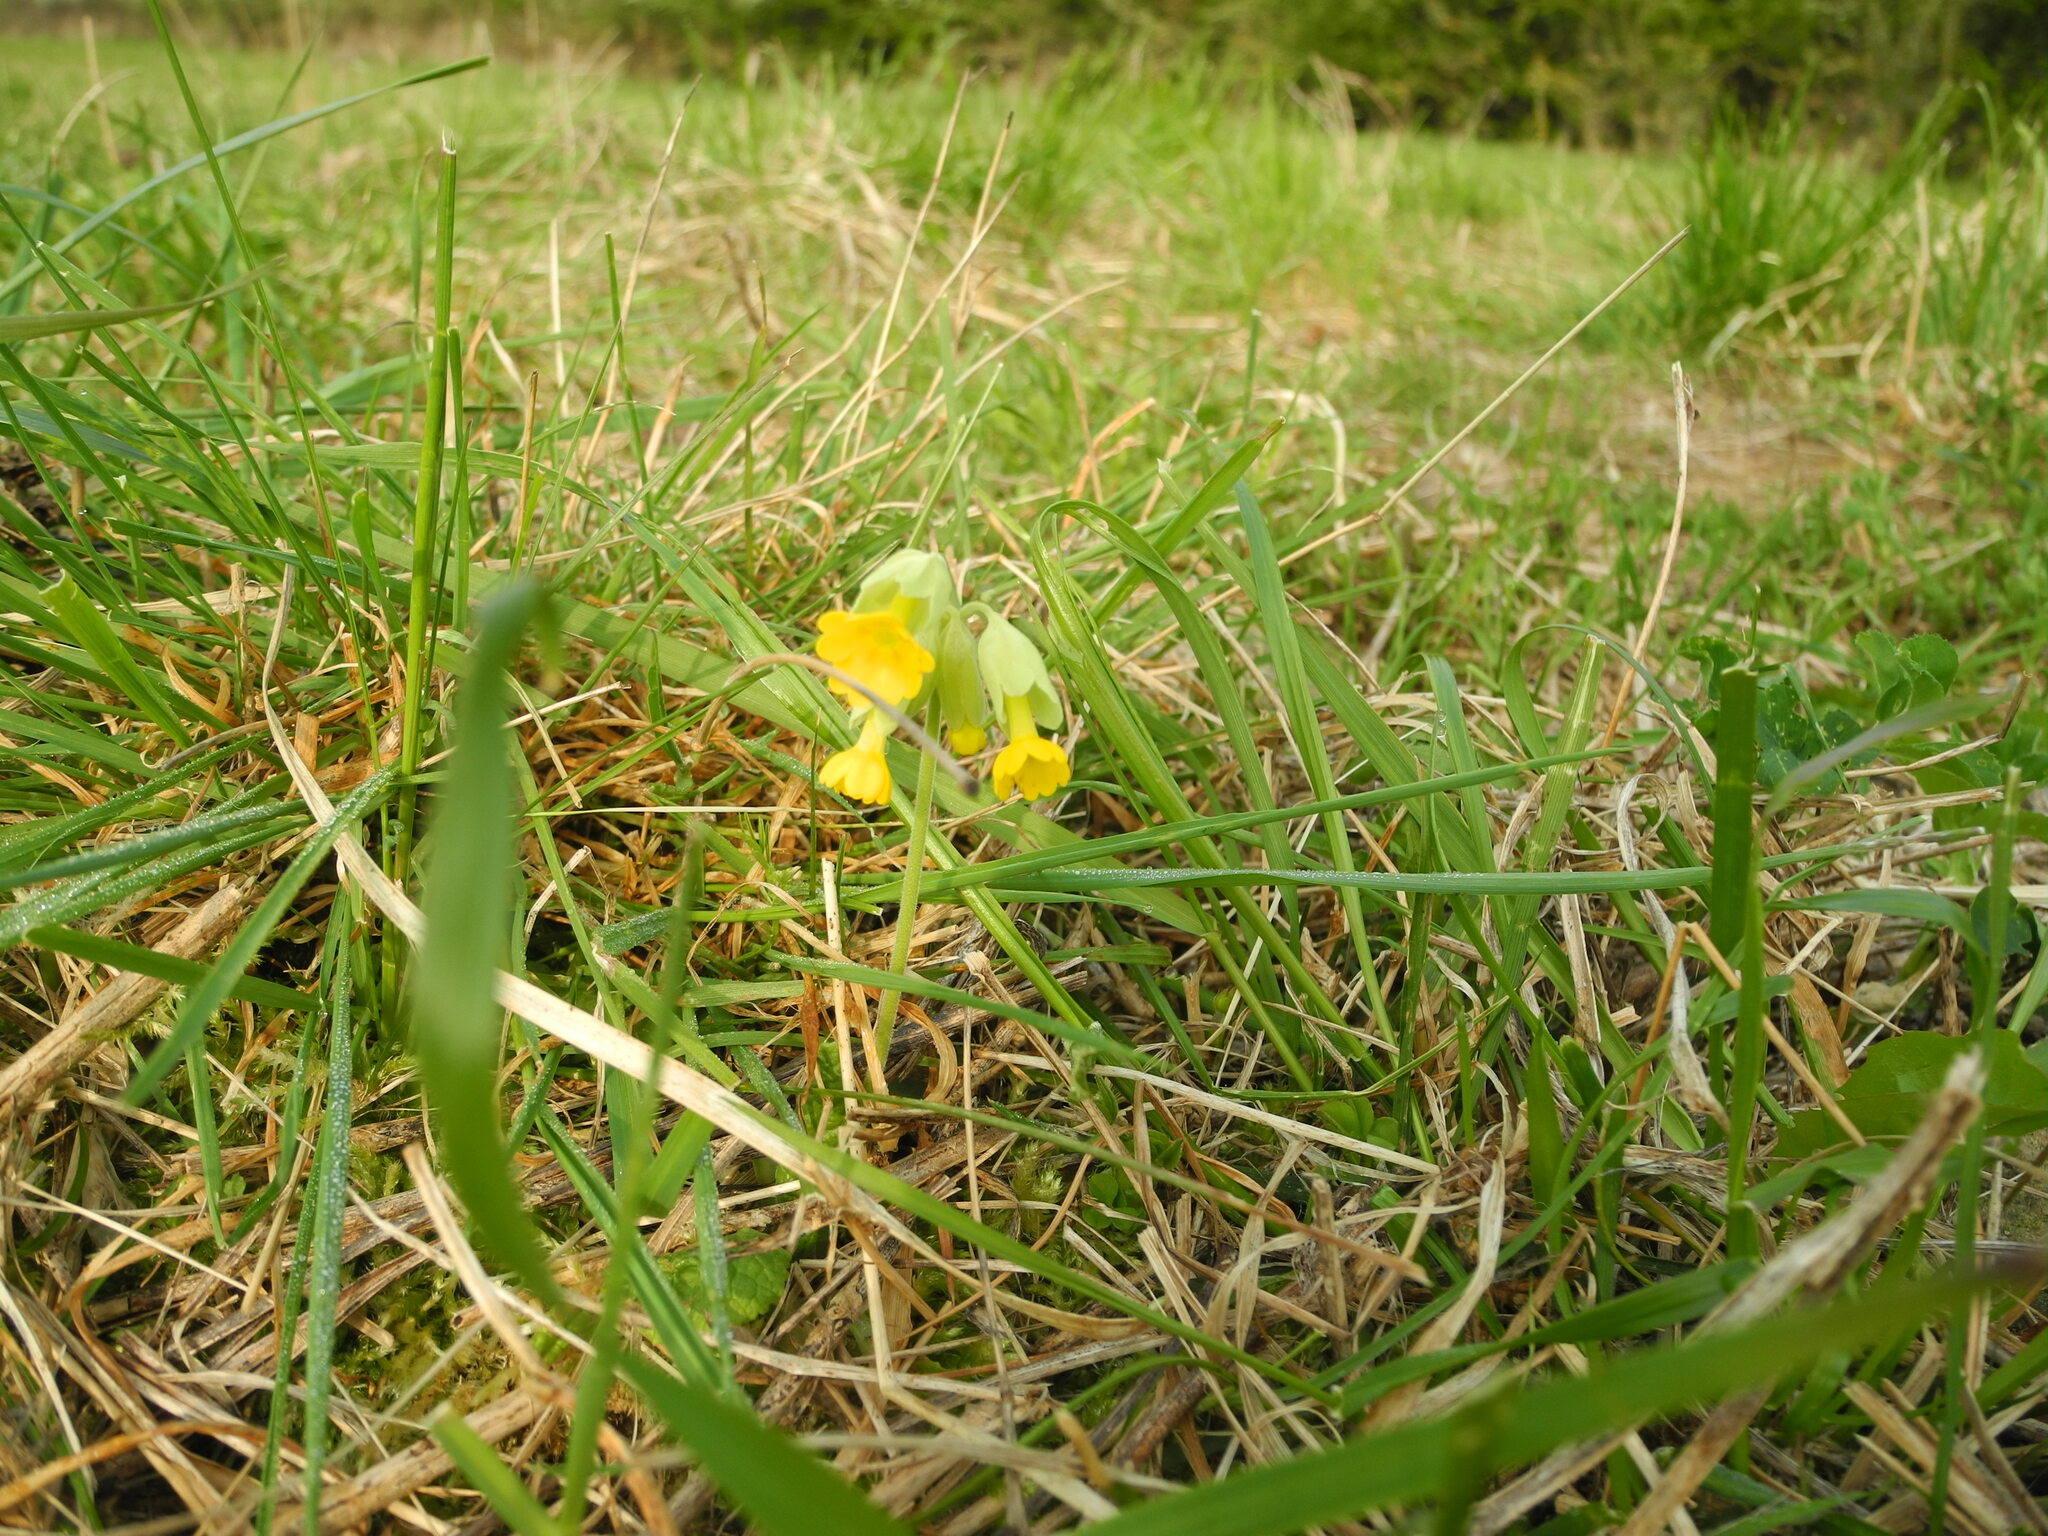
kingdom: Plantae
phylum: Tracheophyta
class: Magnoliopsida
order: Ericales
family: Primulaceae
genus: Primula
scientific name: Primula veris
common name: Cowslip
